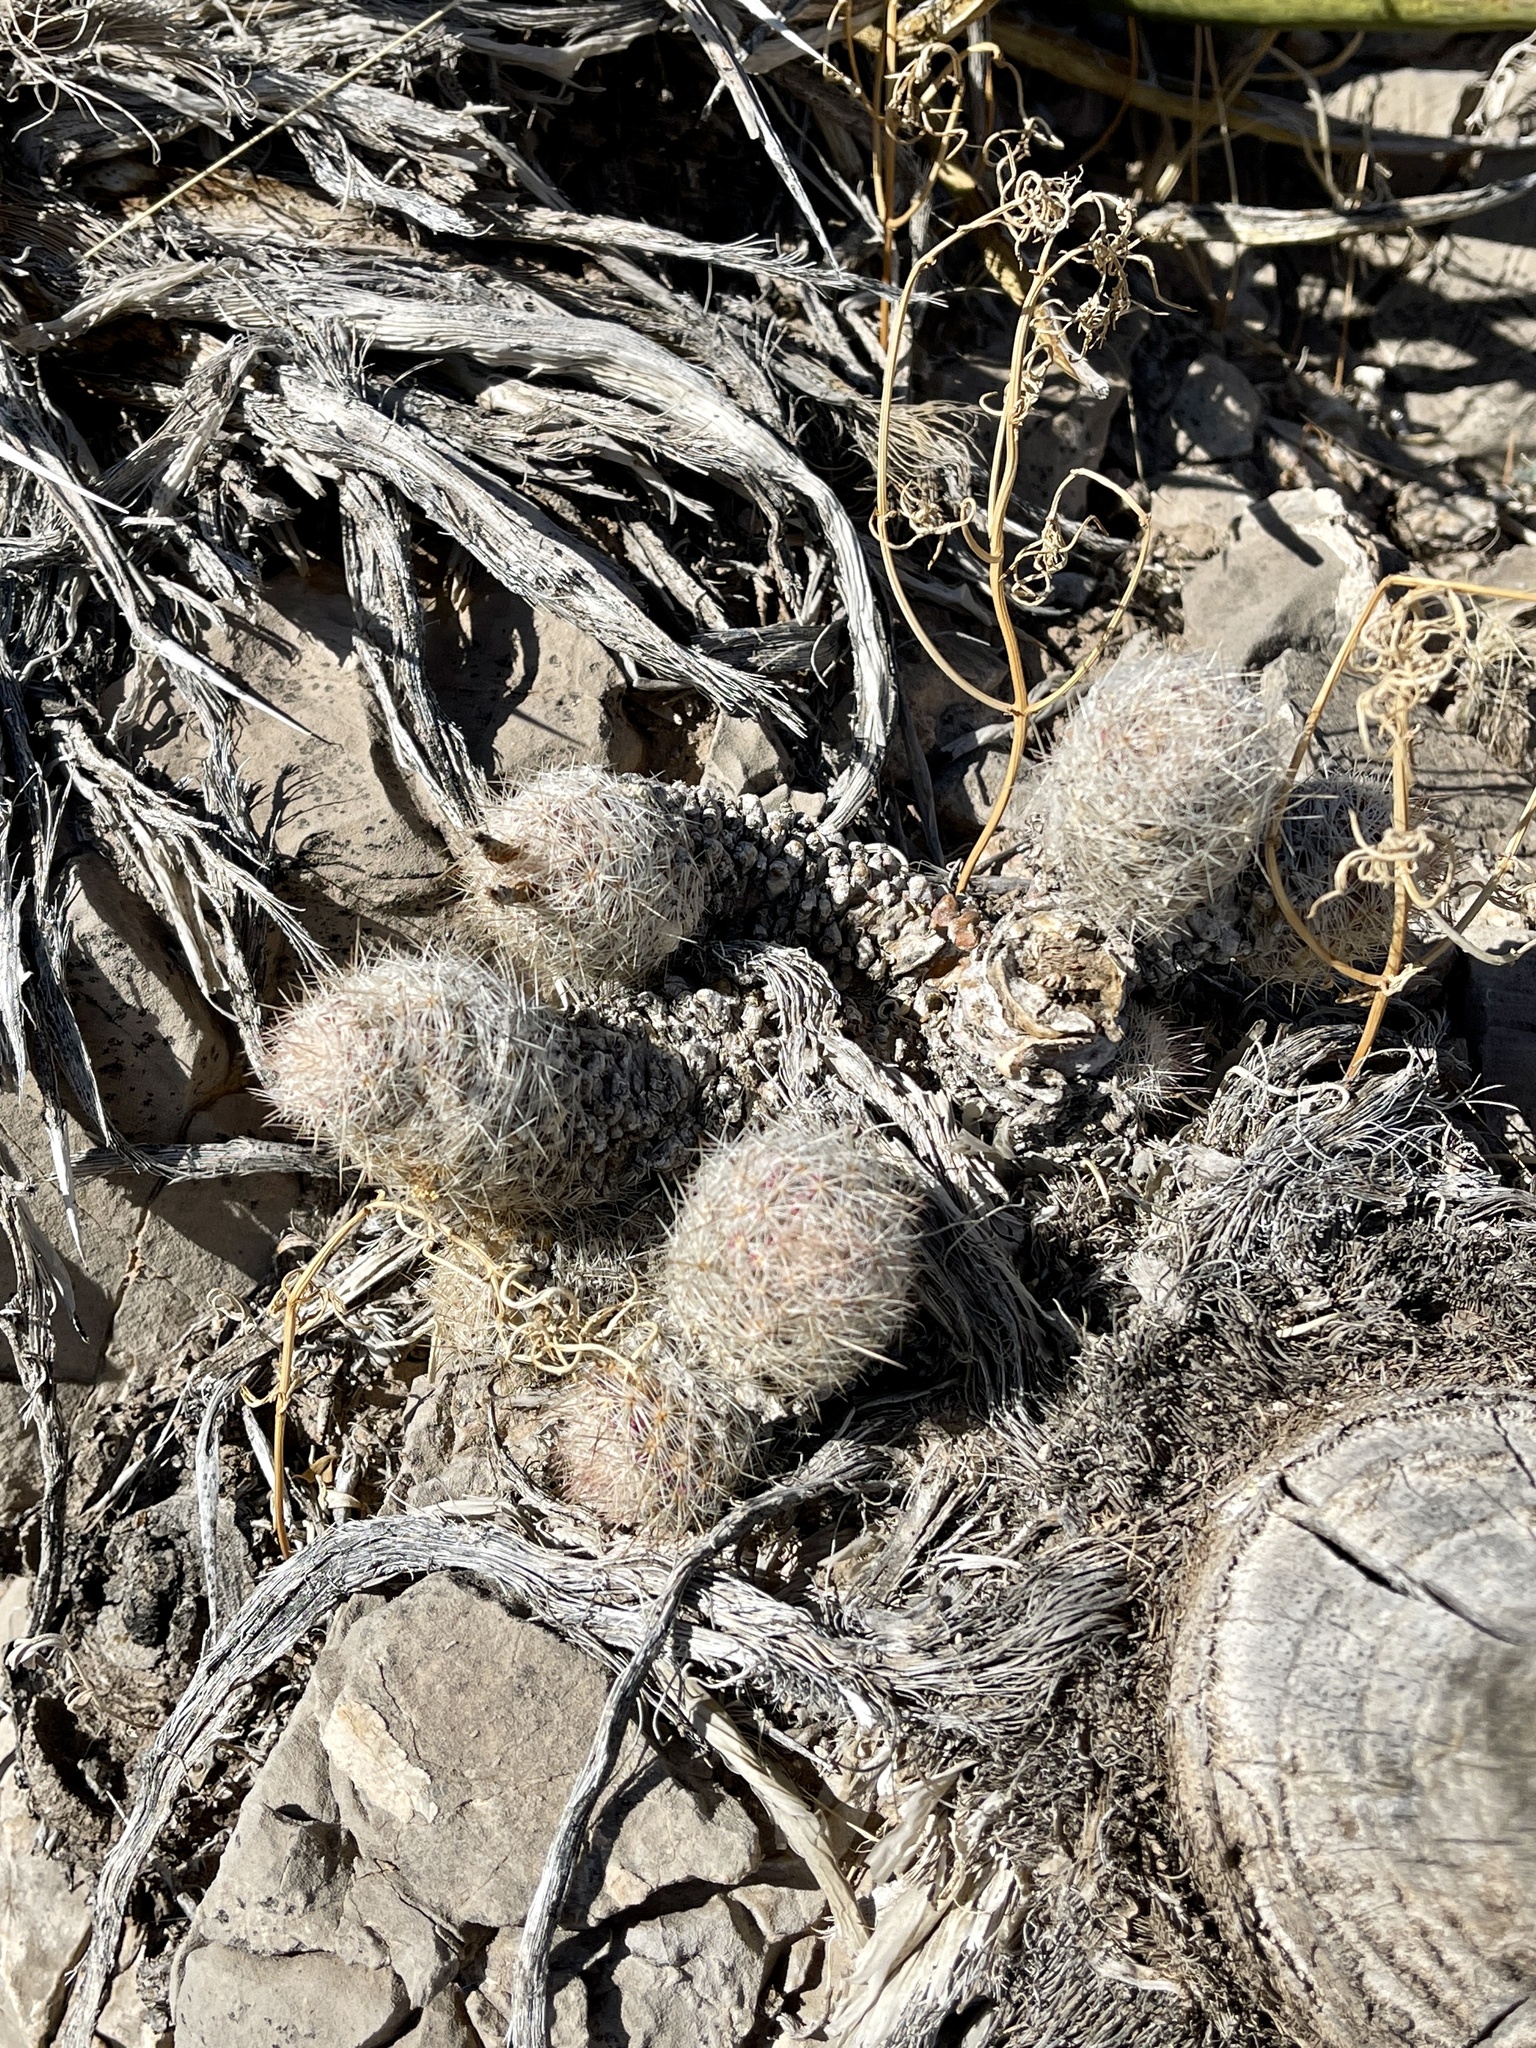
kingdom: Plantae
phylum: Tracheophyta
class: Magnoliopsida
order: Caryophyllales
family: Cactaceae
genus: Pelecyphora
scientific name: Pelecyphora tuberculosa
